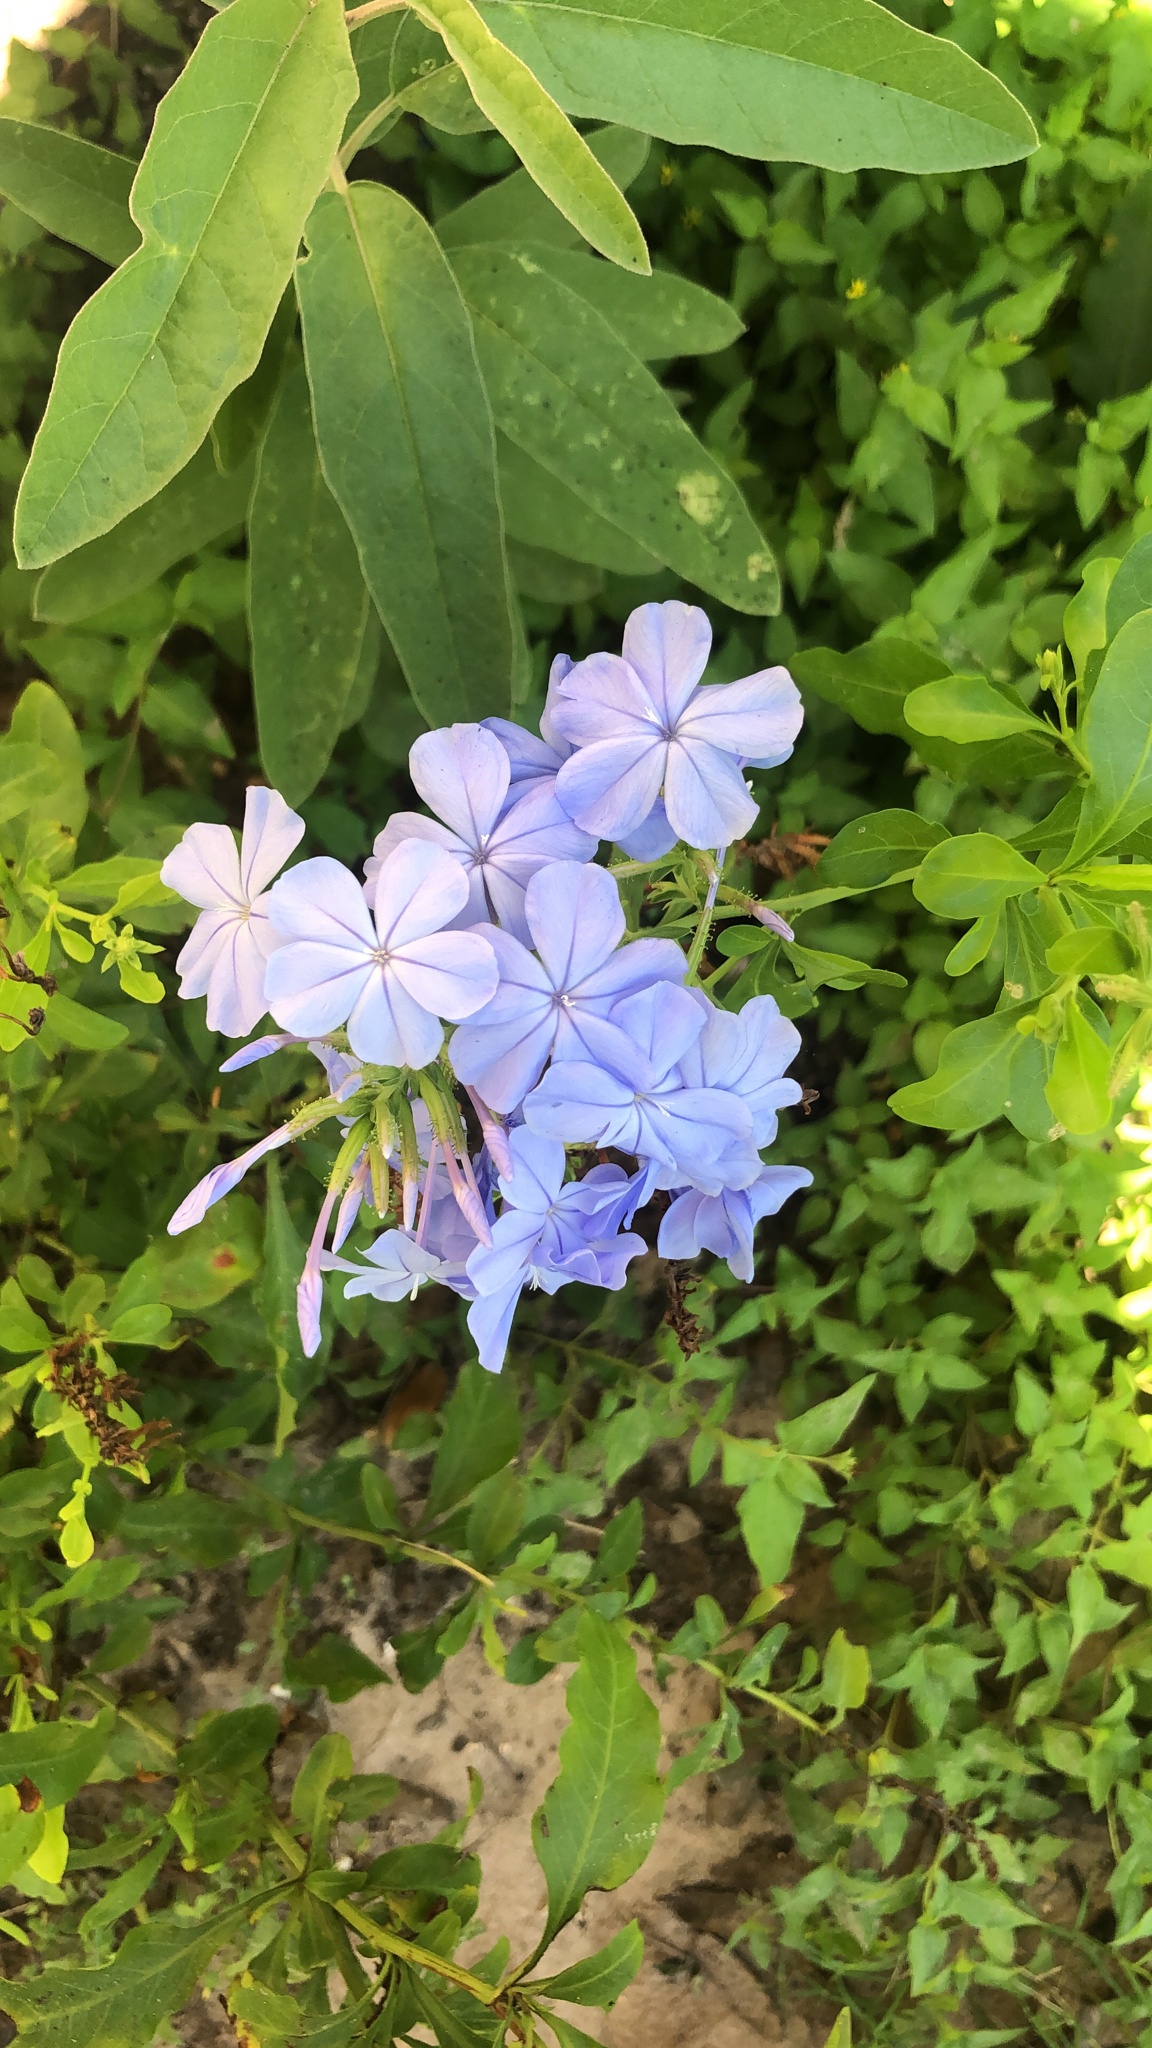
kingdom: Plantae
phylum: Tracheophyta
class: Magnoliopsida
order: Caryophyllales
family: Plumbaginaceae
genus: Plumbago
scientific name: Plumbago auriculata
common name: Cape leadwort
